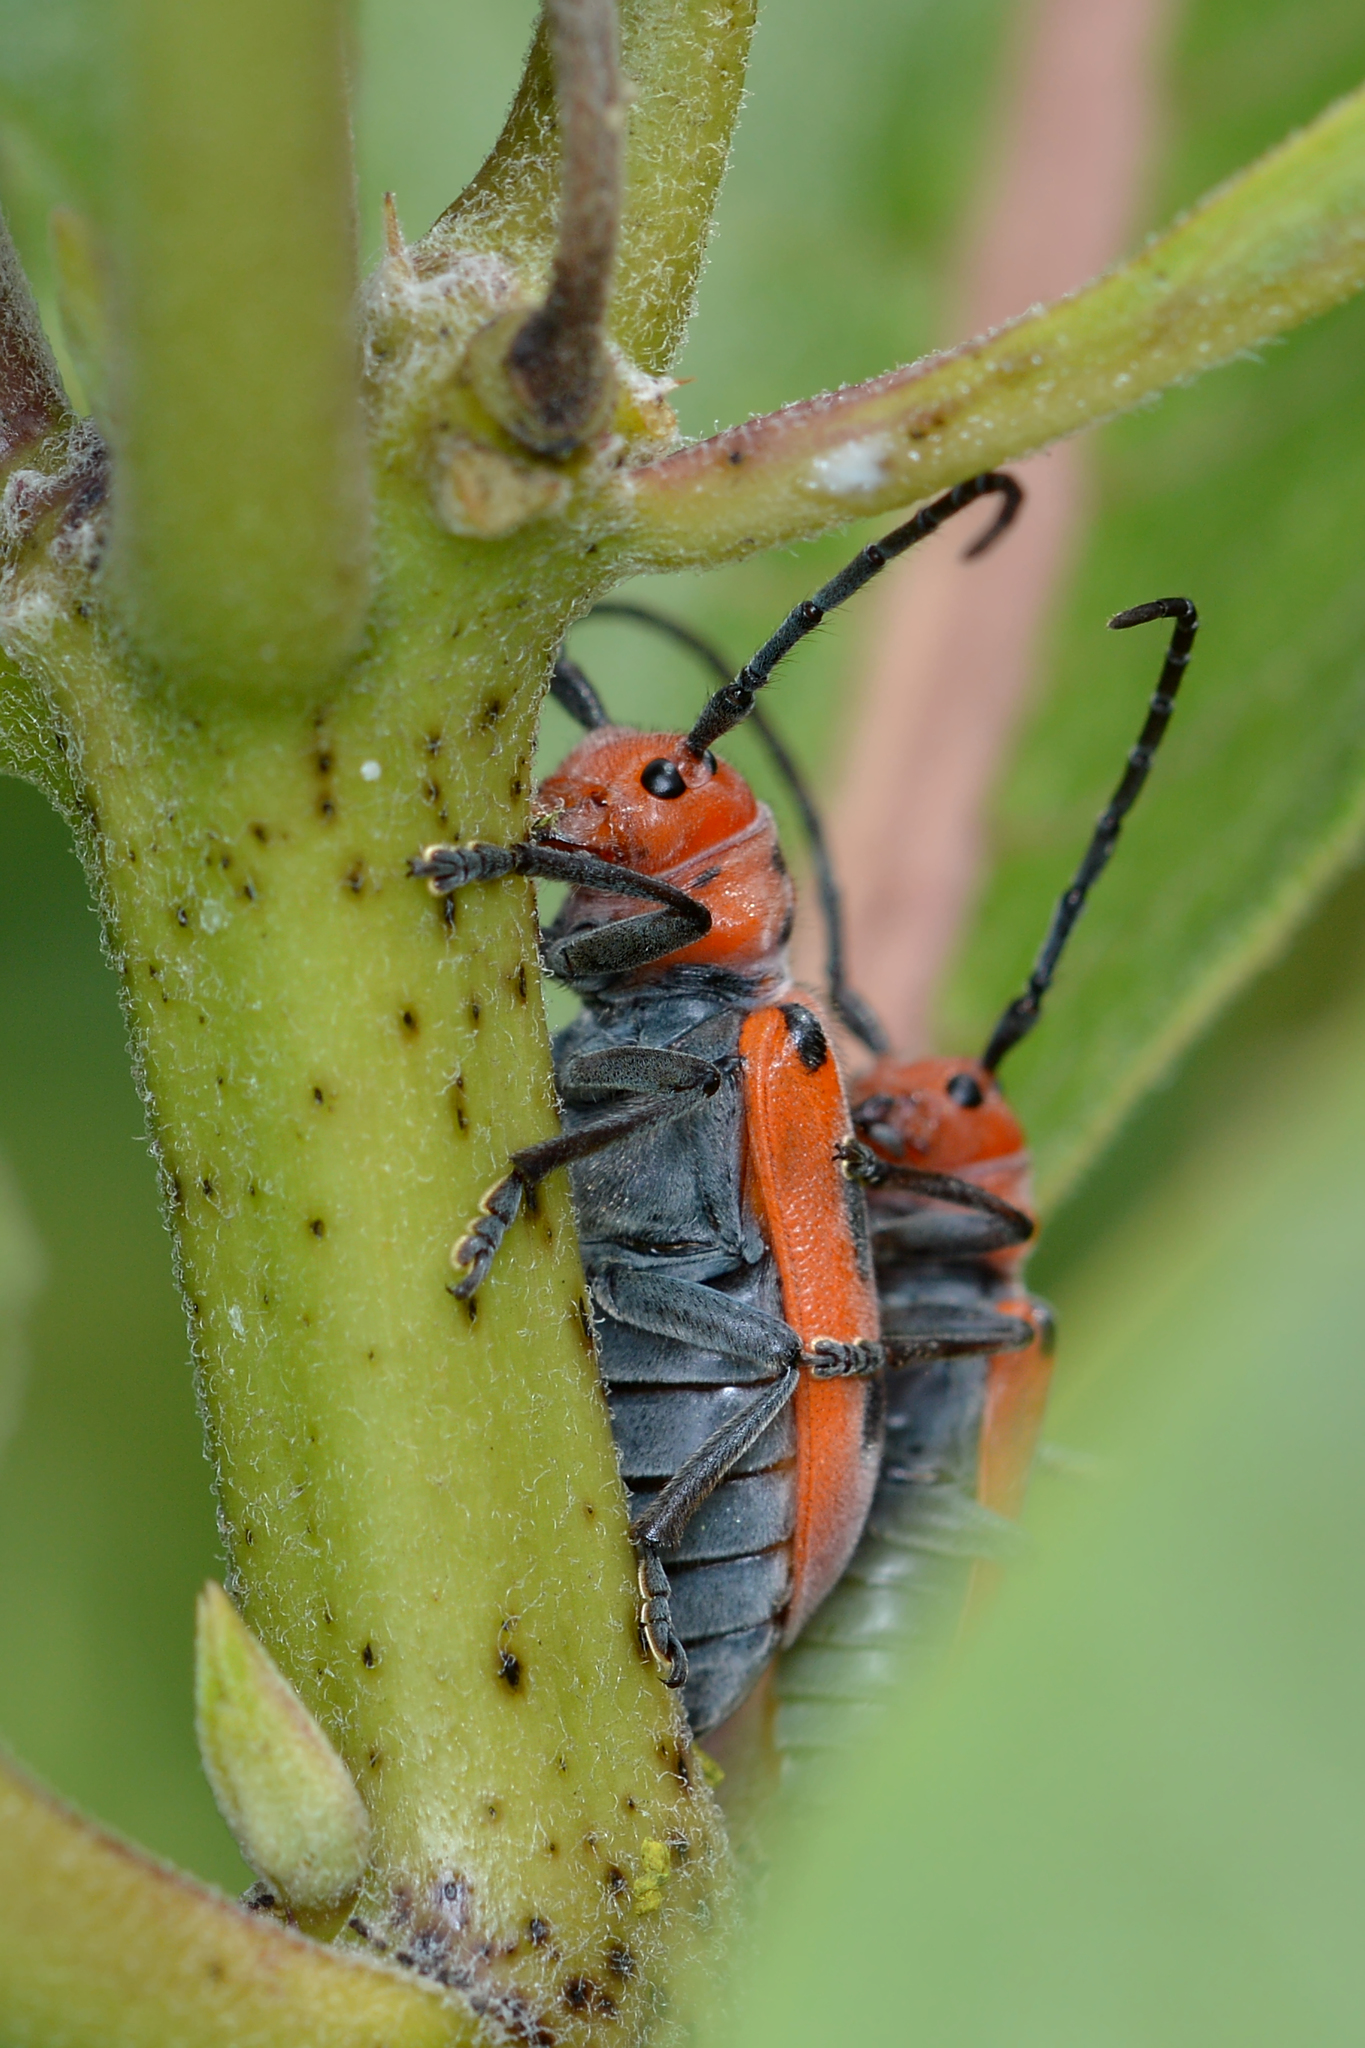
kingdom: Animalia
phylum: Arthropoda
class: Insecta
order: Coleoptera
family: Cerambycidae
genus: Tetraopes
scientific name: Tetraopes tetrophthalmus
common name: Red milkweed beetle
